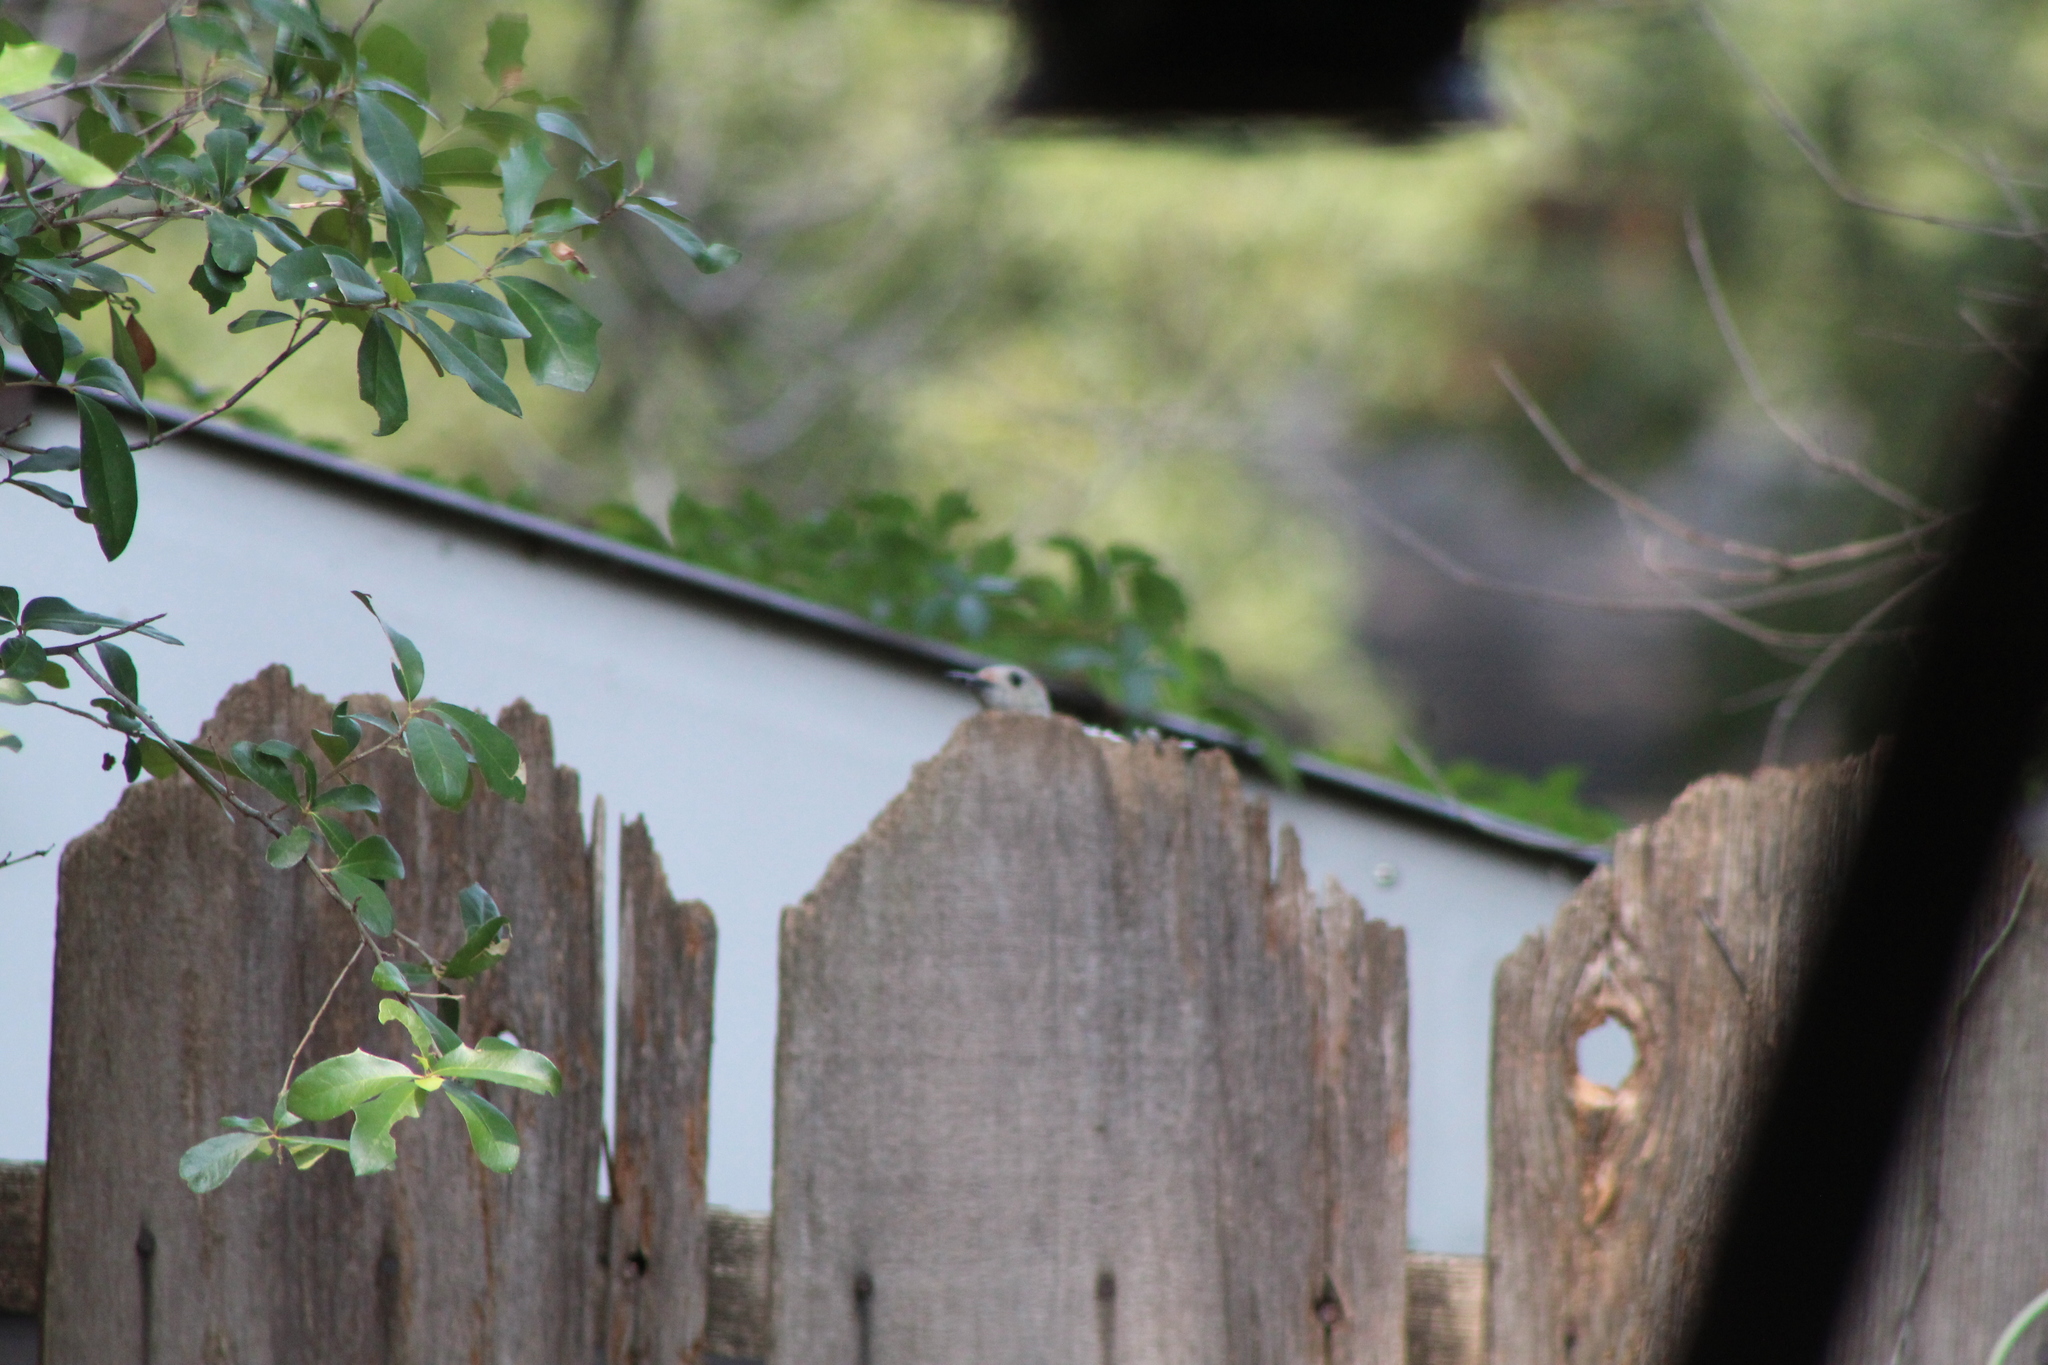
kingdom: Animalia
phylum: Chordata
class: Aves
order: Piciformes
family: Picidae
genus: Melanerpes
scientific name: Melanerpes carolinus
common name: Red-bellied woodpecker
